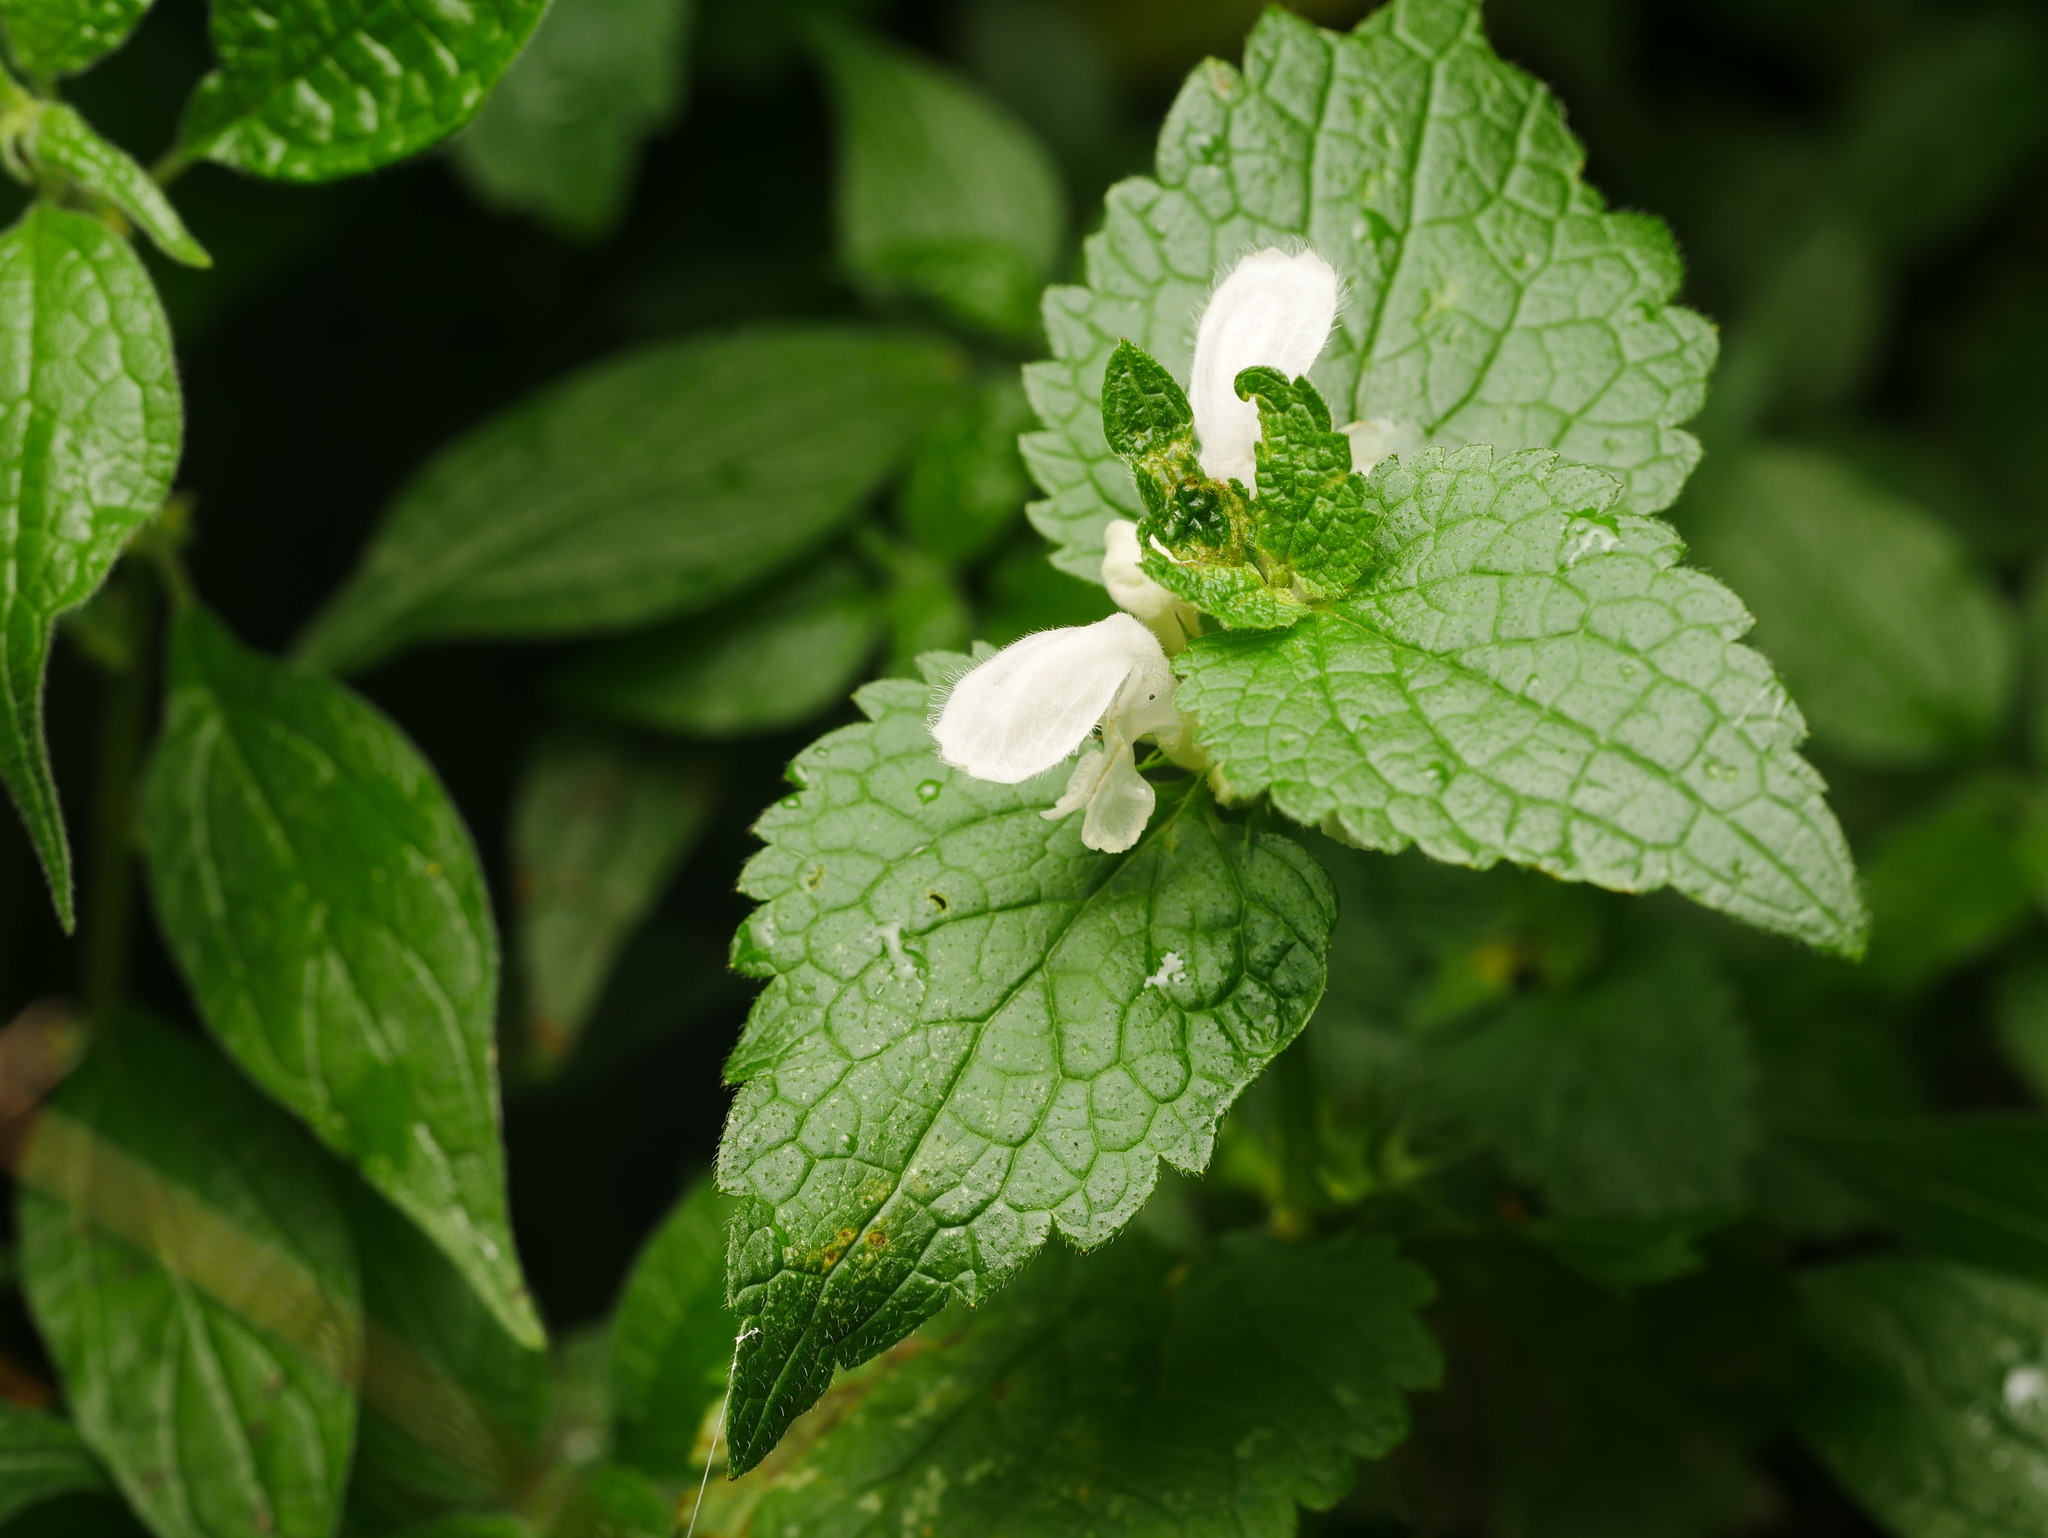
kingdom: Plantae
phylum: Tracheophyta
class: Magnoliopsida
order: Lamiales
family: Lamiaceae
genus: Lamium
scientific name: Lamium album
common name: White dead-nettle
